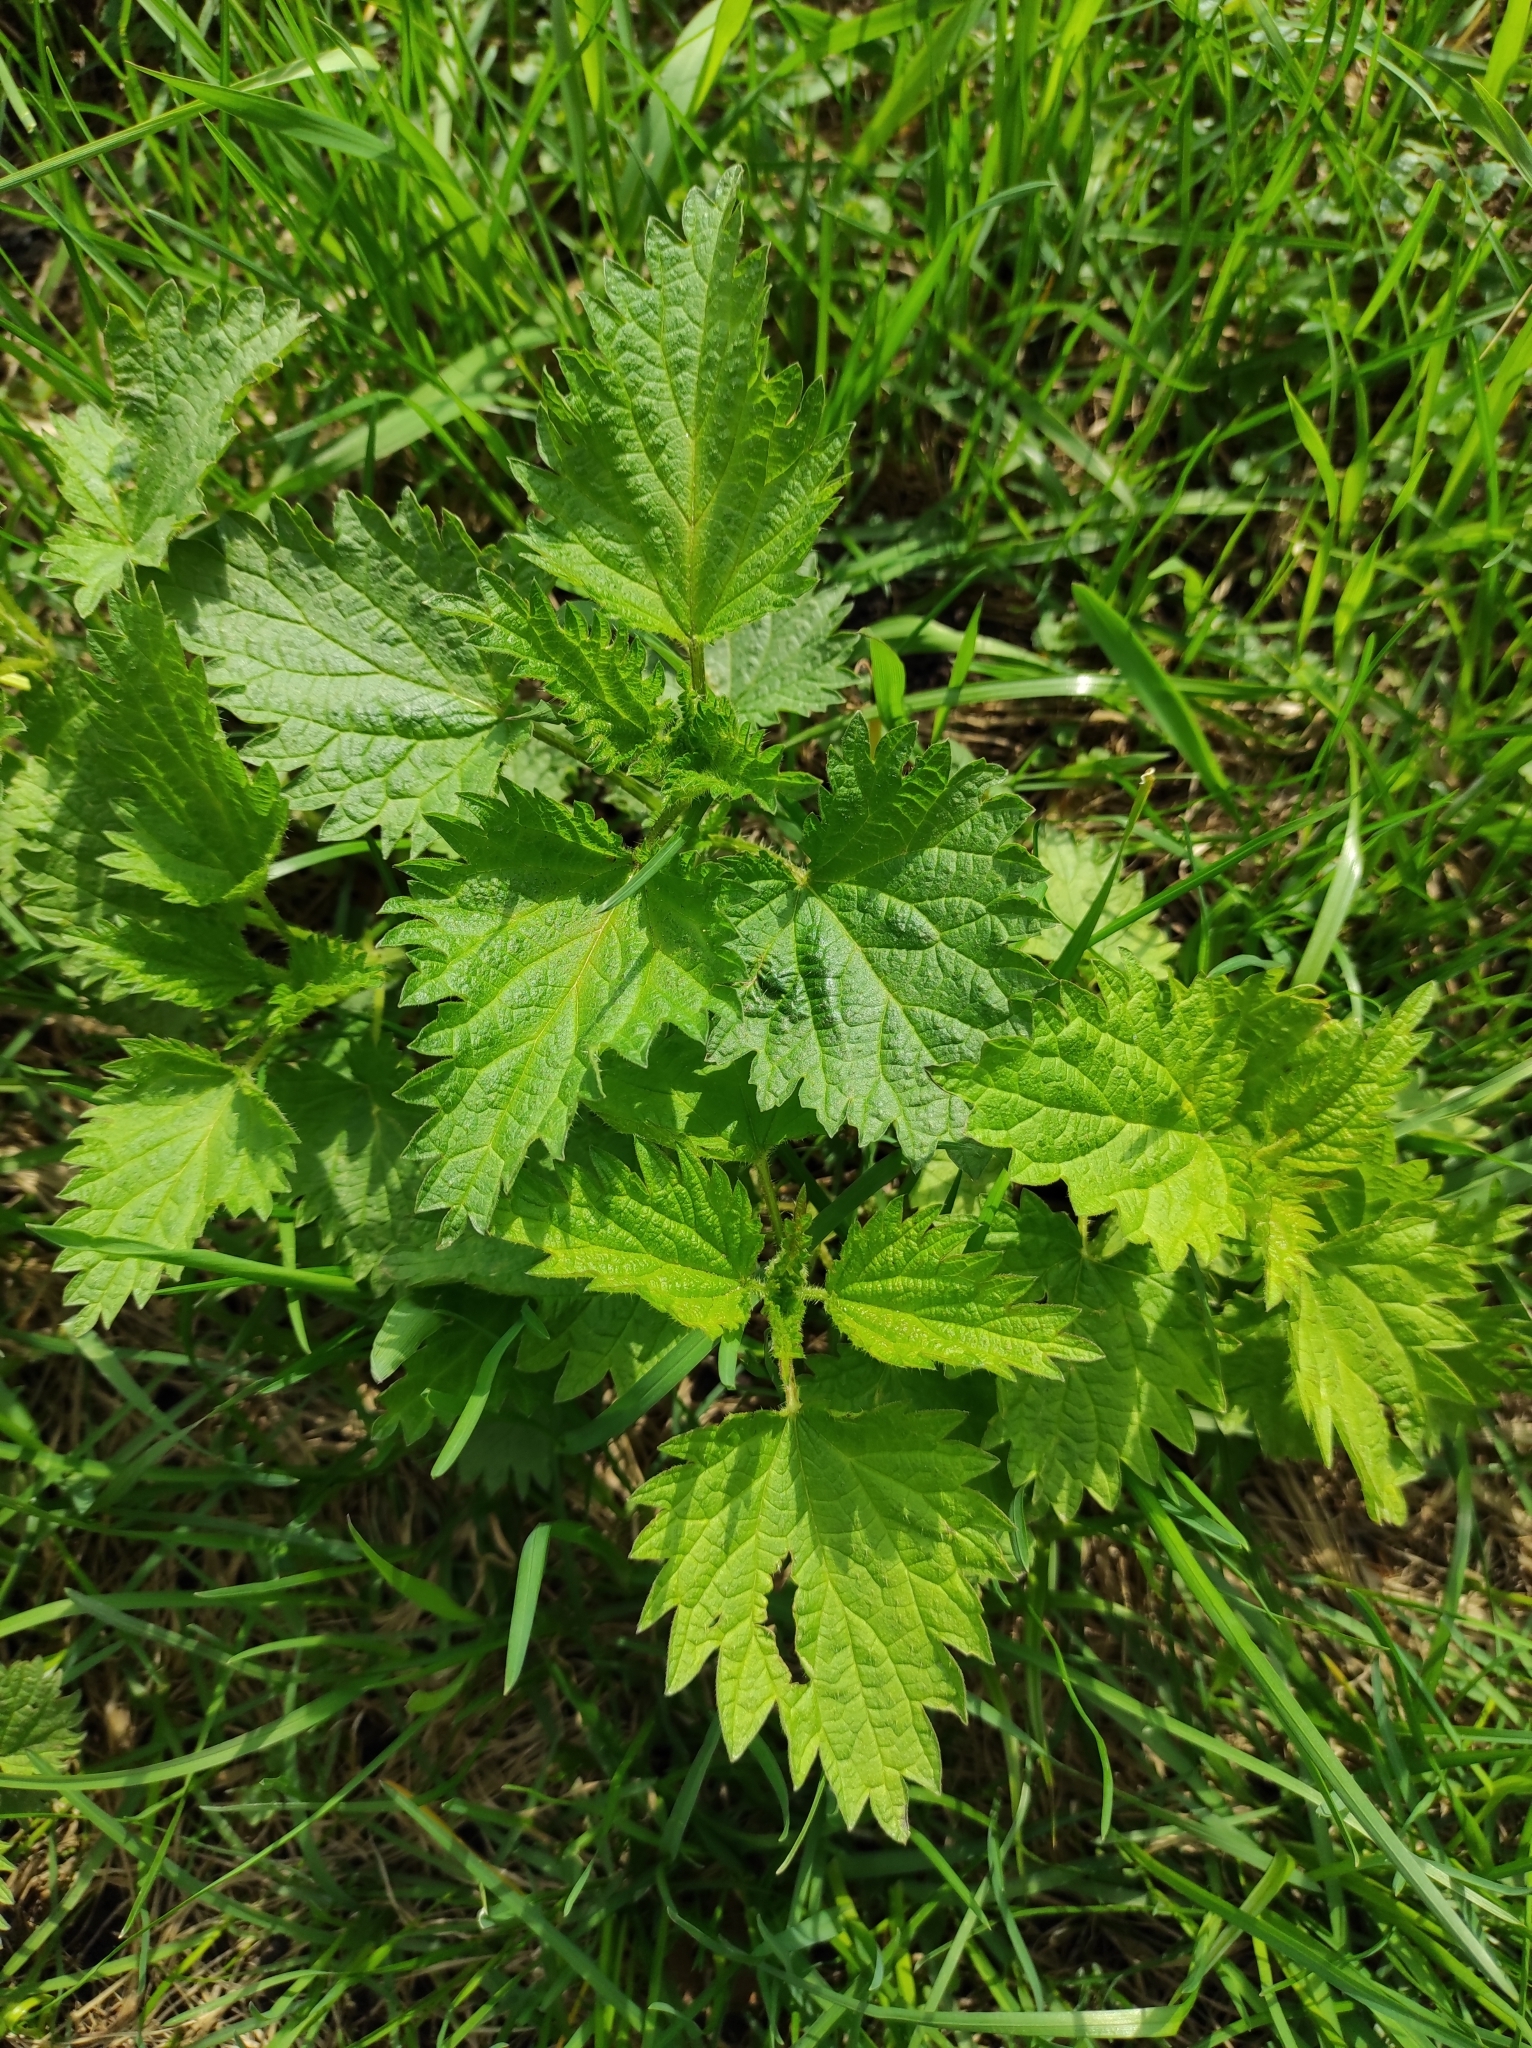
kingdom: Plantae
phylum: Tracheophyta
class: Magnoliopsida
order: Rosales
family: Urticaceae
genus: Urtica
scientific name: Urtica dioica
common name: Common nettle
